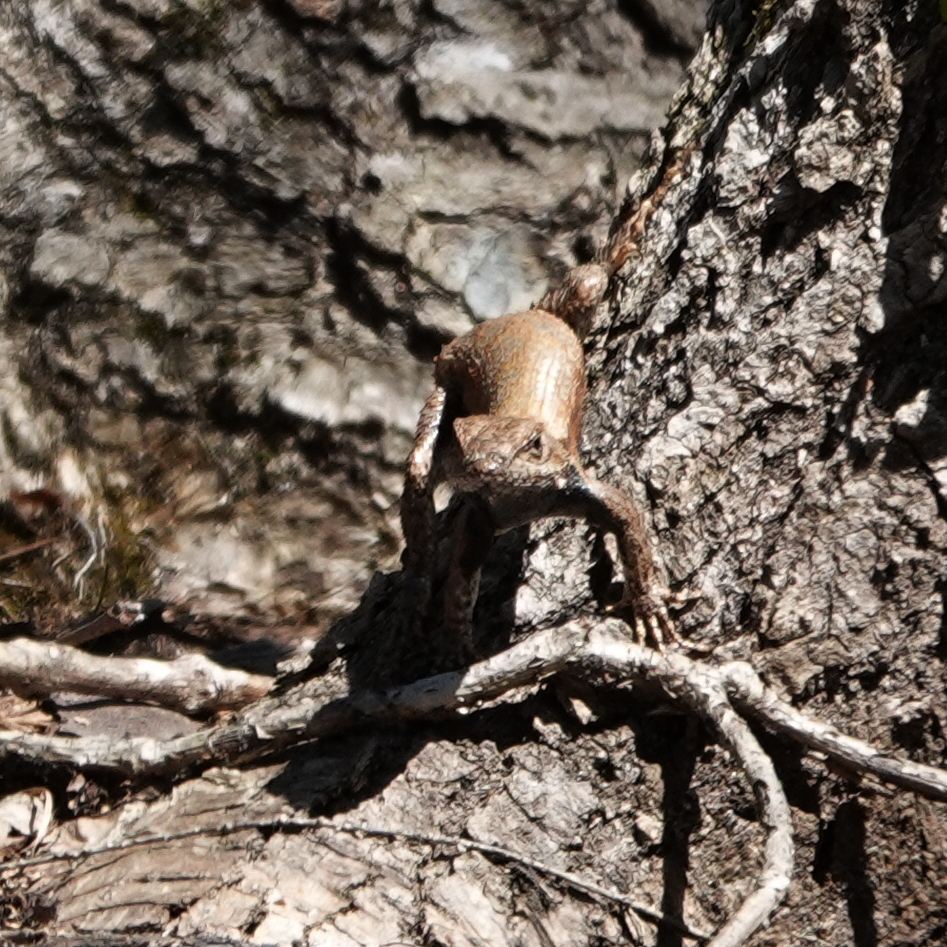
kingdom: Animalia
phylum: Chordata
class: Squamata
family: Phrynosomatidae
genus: Sceloporus
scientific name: Sceloporus undulatus
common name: Eastern fence lizard
